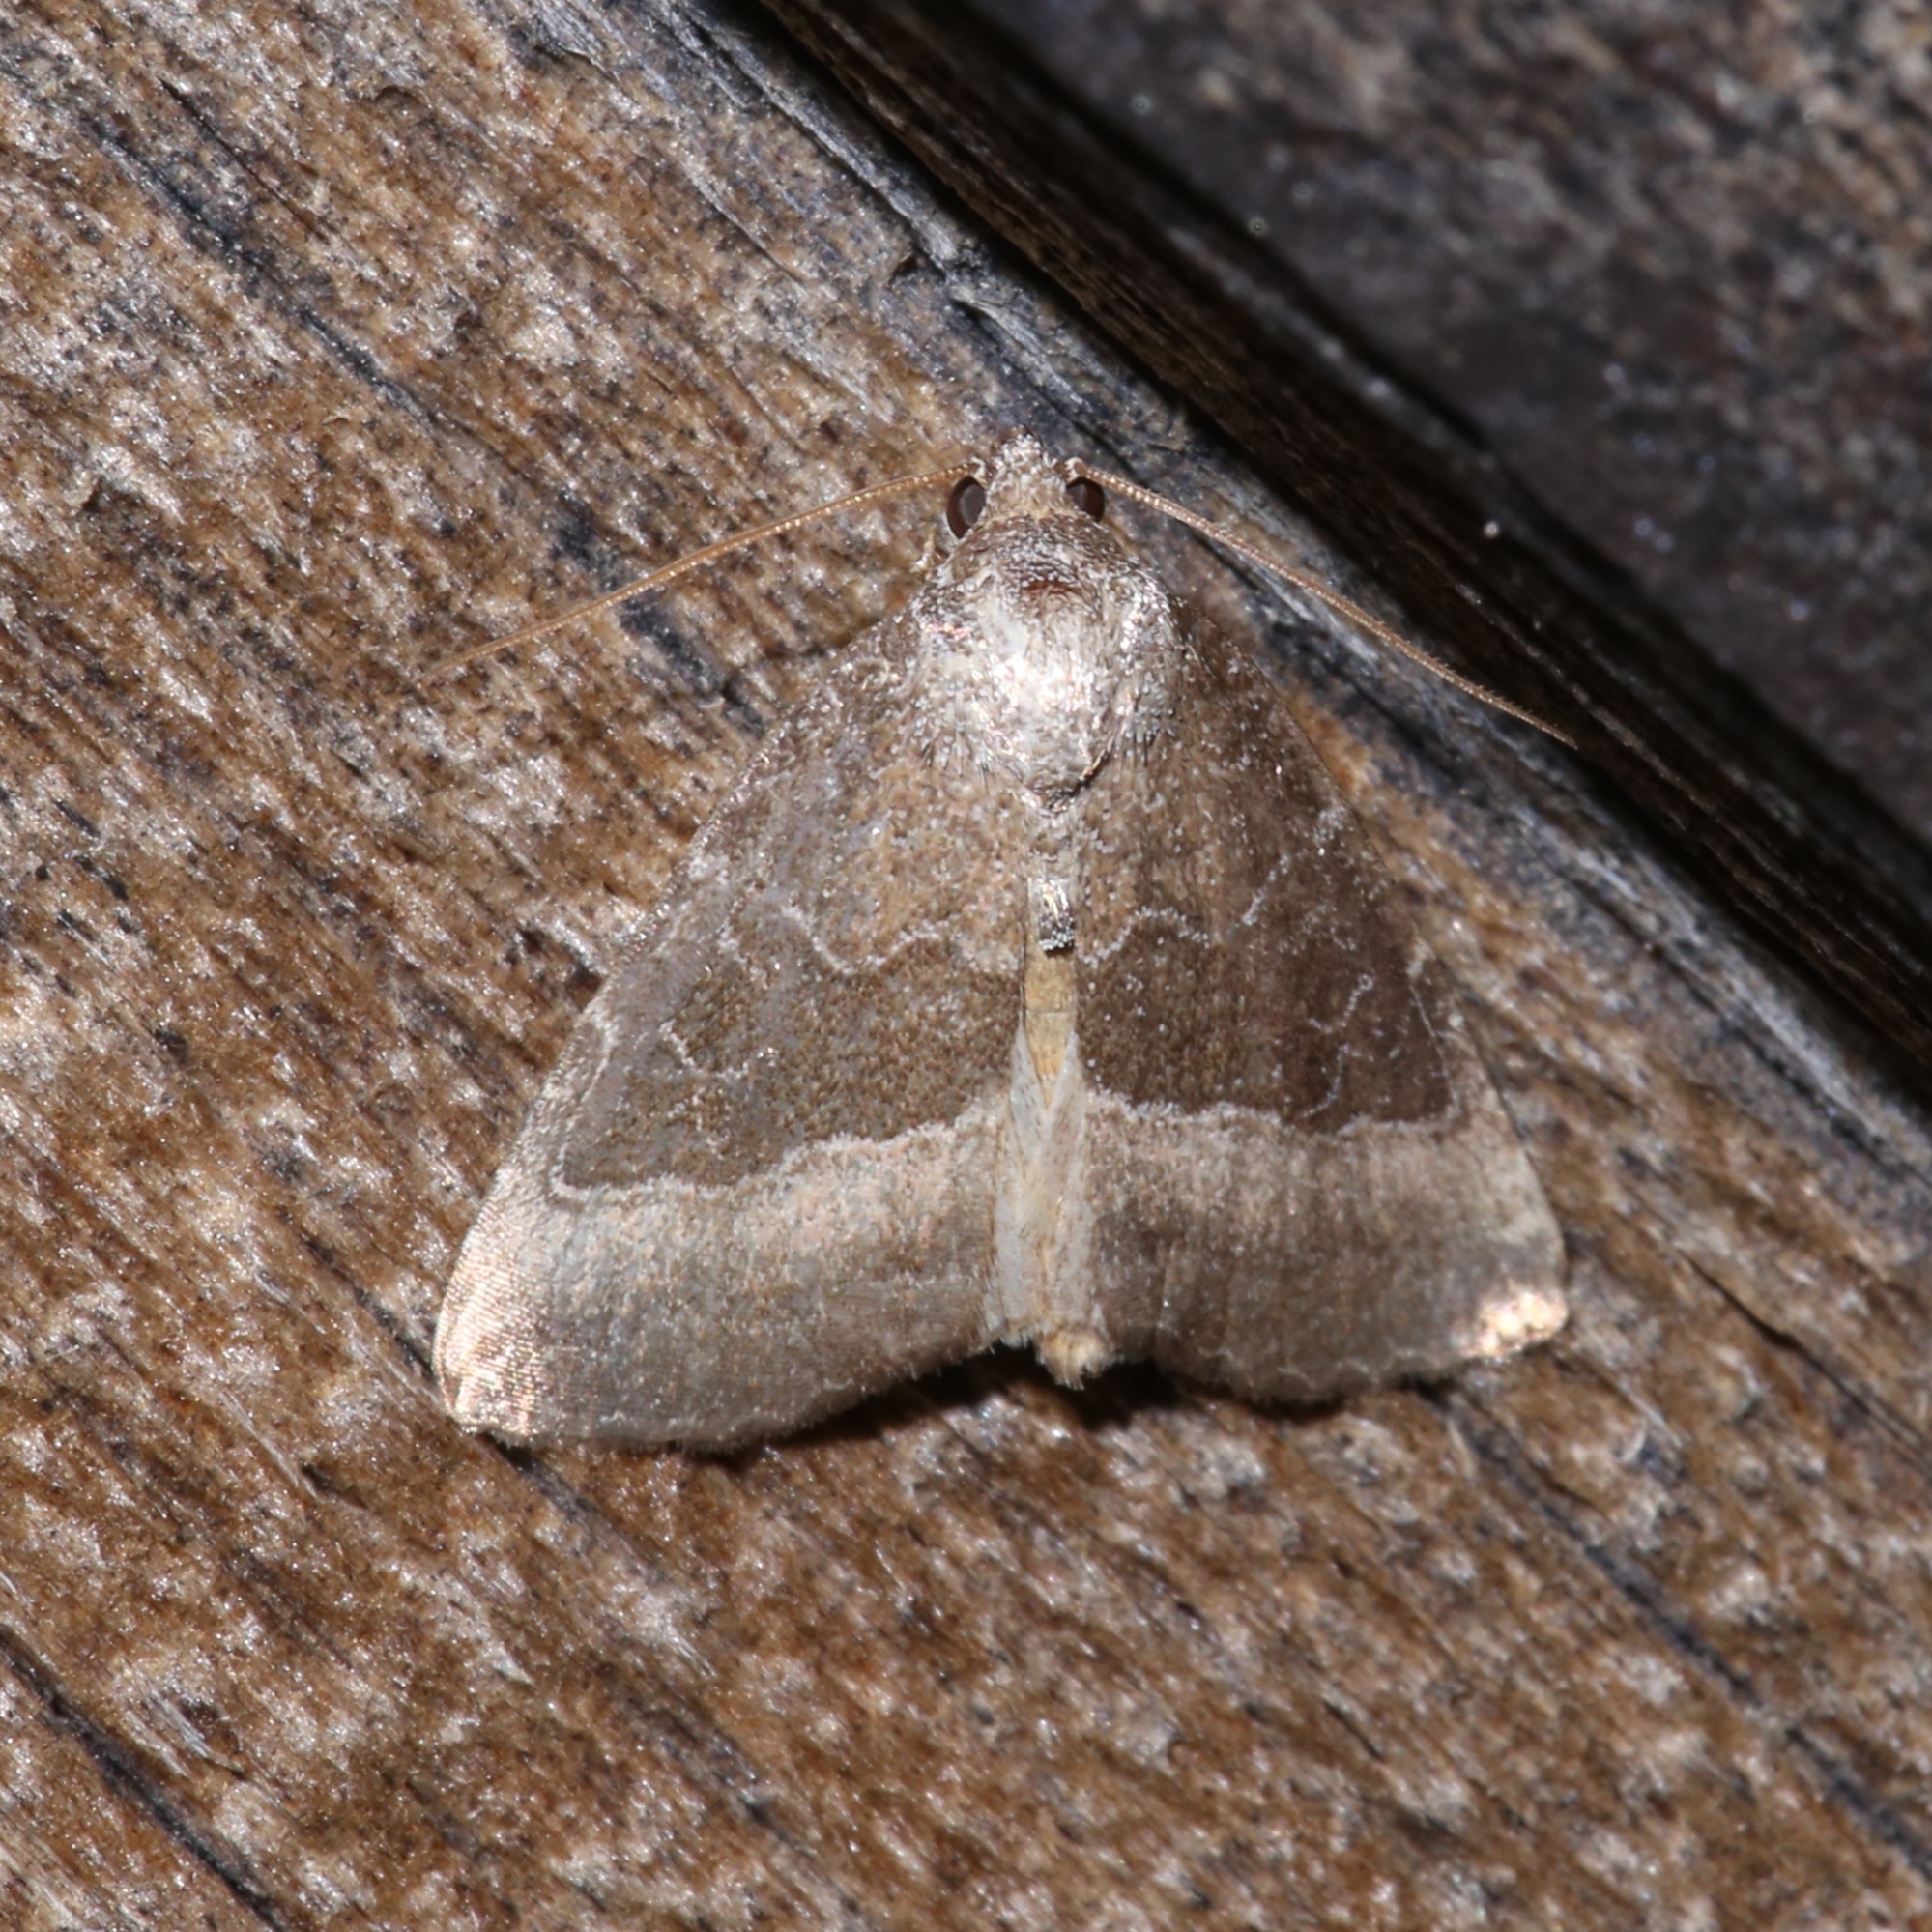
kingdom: Animalia
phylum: Arthropoda
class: Insecta
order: Lepidoptera
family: Noctuidae
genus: Ogdoconta
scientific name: Ogdoconta cinereola
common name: Common pinkband
